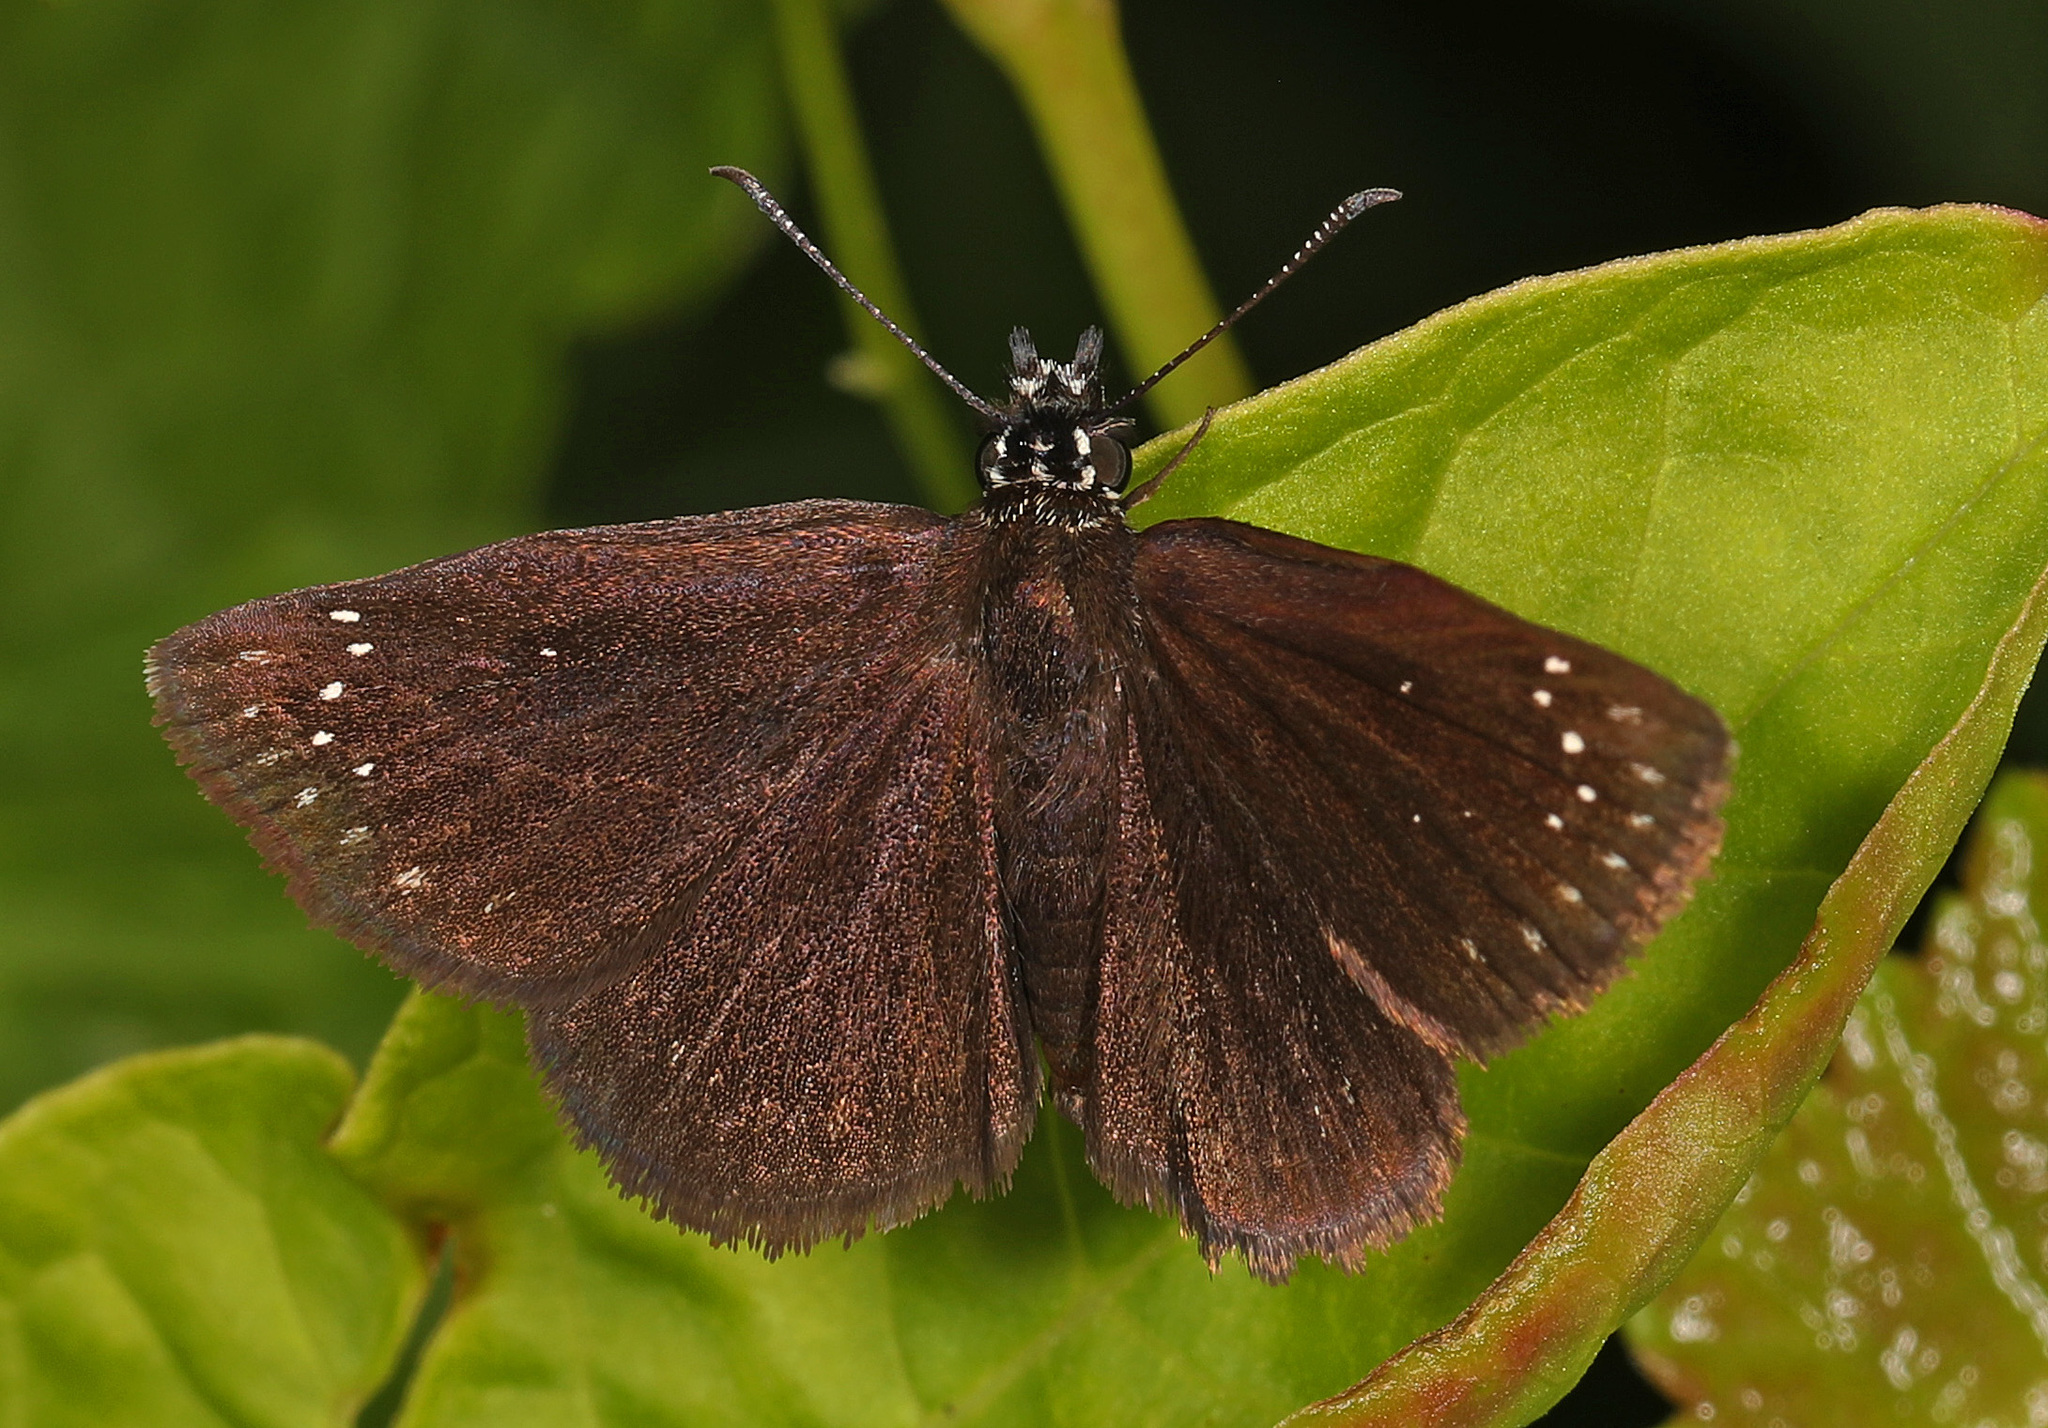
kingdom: Animalia
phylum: Arthropoda
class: Insecta
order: Lepidoptera
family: Hesperiidae
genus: Pholisora
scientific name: Pholisora catullus
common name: Common sootywing
